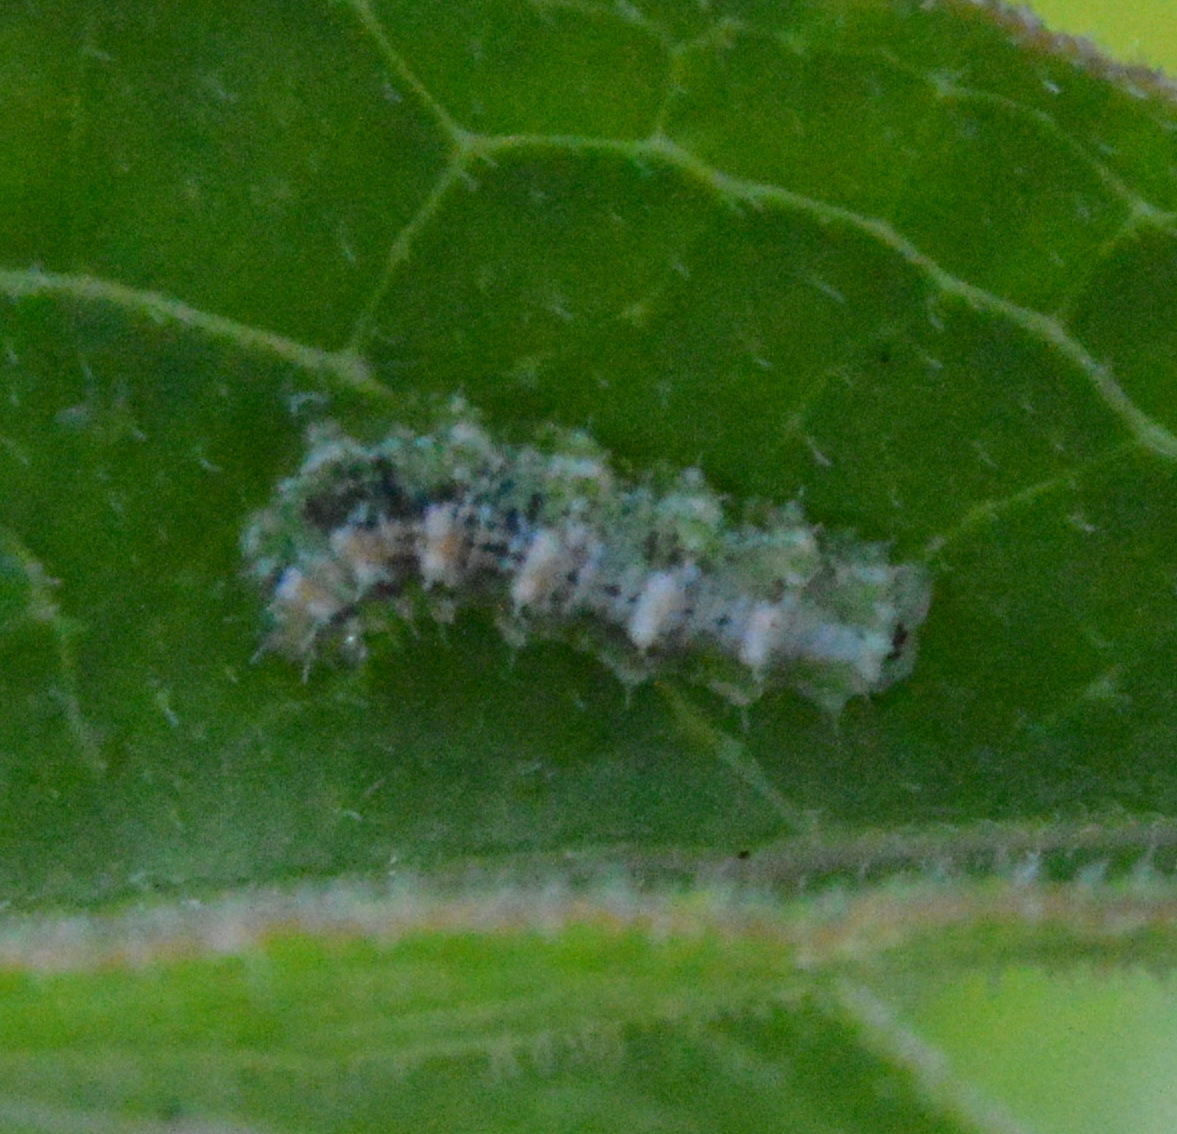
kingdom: Animalia
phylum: Arthropoda
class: Insecta
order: Diptera
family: Syrphidae
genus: Dioprosopa
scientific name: Dioprosopa clavatus
